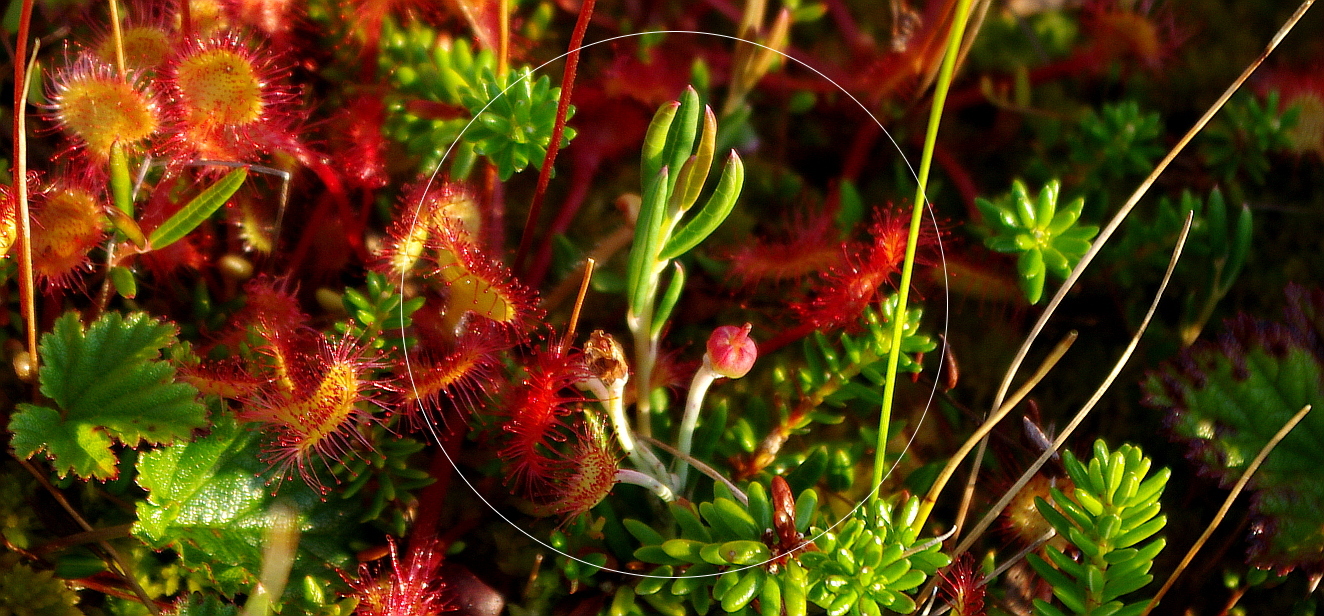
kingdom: Plantae
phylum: Tracheophyta
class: Magnoliopsida
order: Ericales
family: Ericaceae
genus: Andromeda
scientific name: Andromeda polifolia
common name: Bog-rosemary
